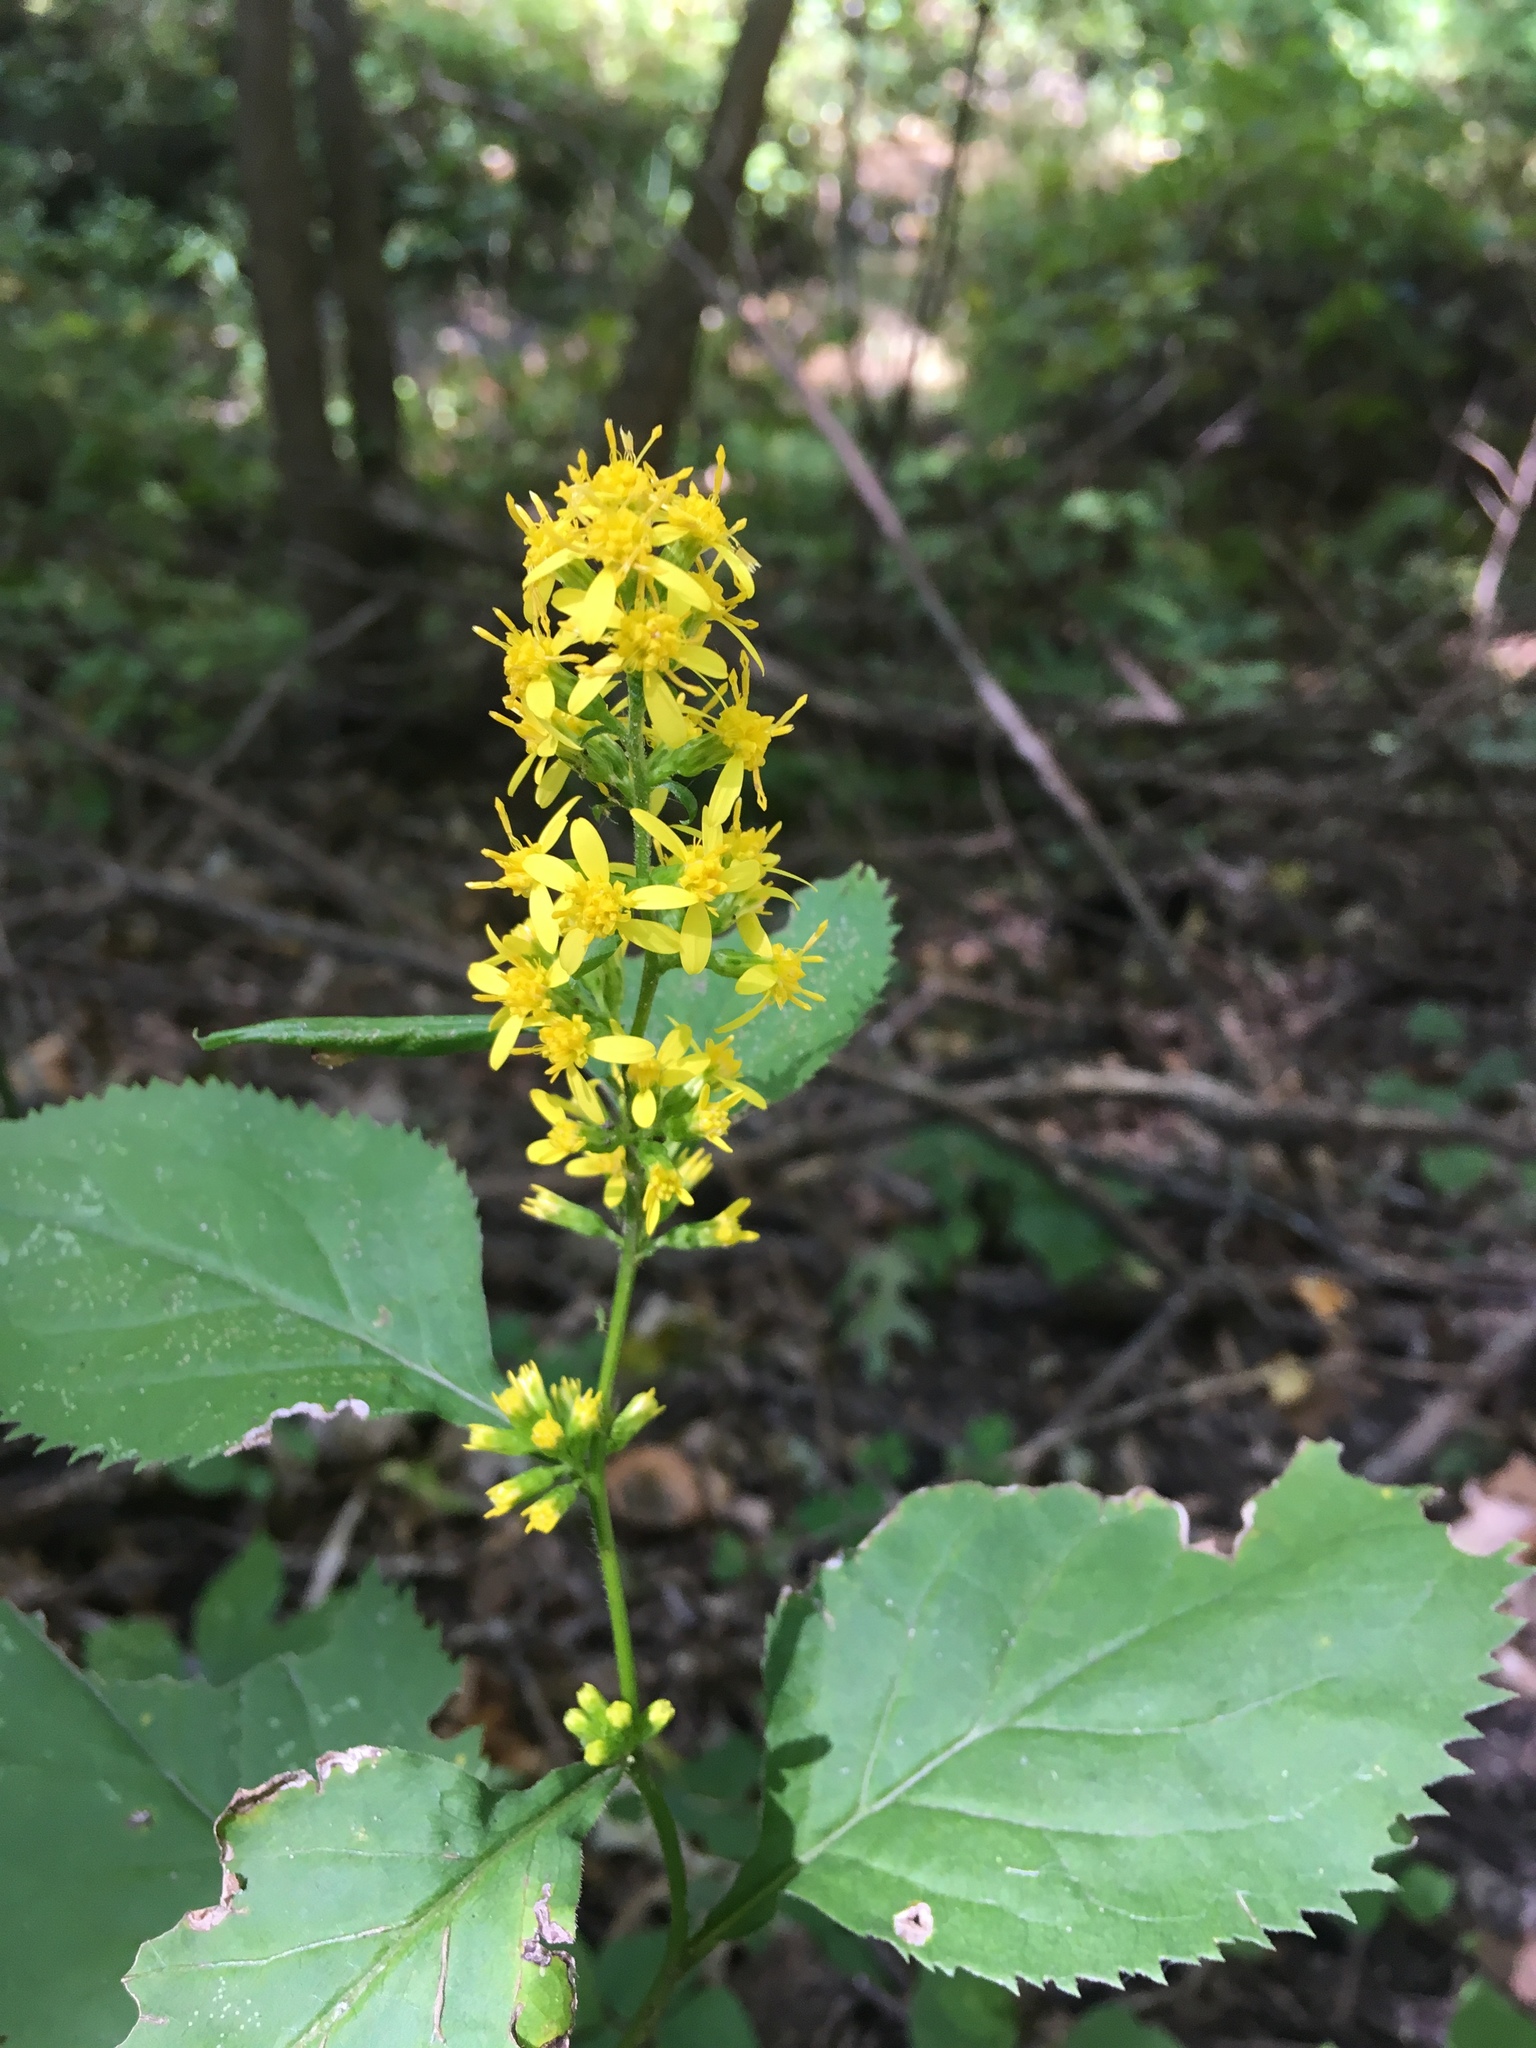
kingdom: Plantae
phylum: Tracheophyta
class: Magnoliopsida
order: Asterales
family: Asteraceae
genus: Solidago
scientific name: Solidago flexicaulis
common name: Zig-zag goldenrod
